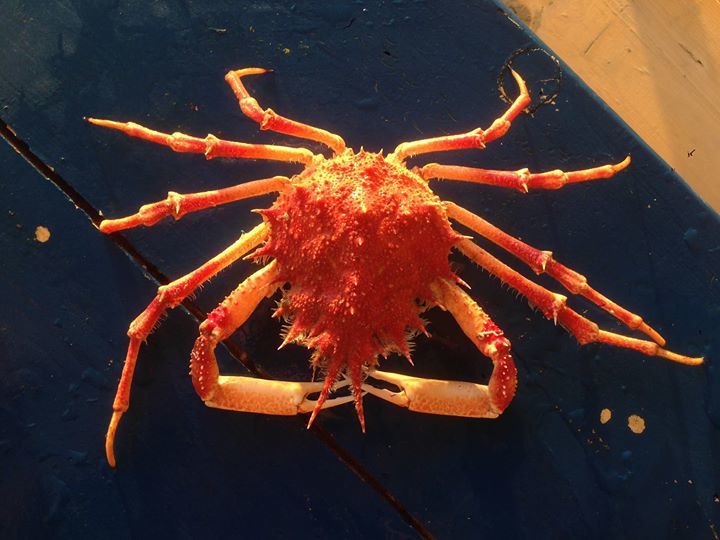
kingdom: Animalia
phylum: Arthropoda
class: Malacostraca
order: Decapoda
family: Majidae
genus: Neomaja
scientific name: Neomaja goltziana
